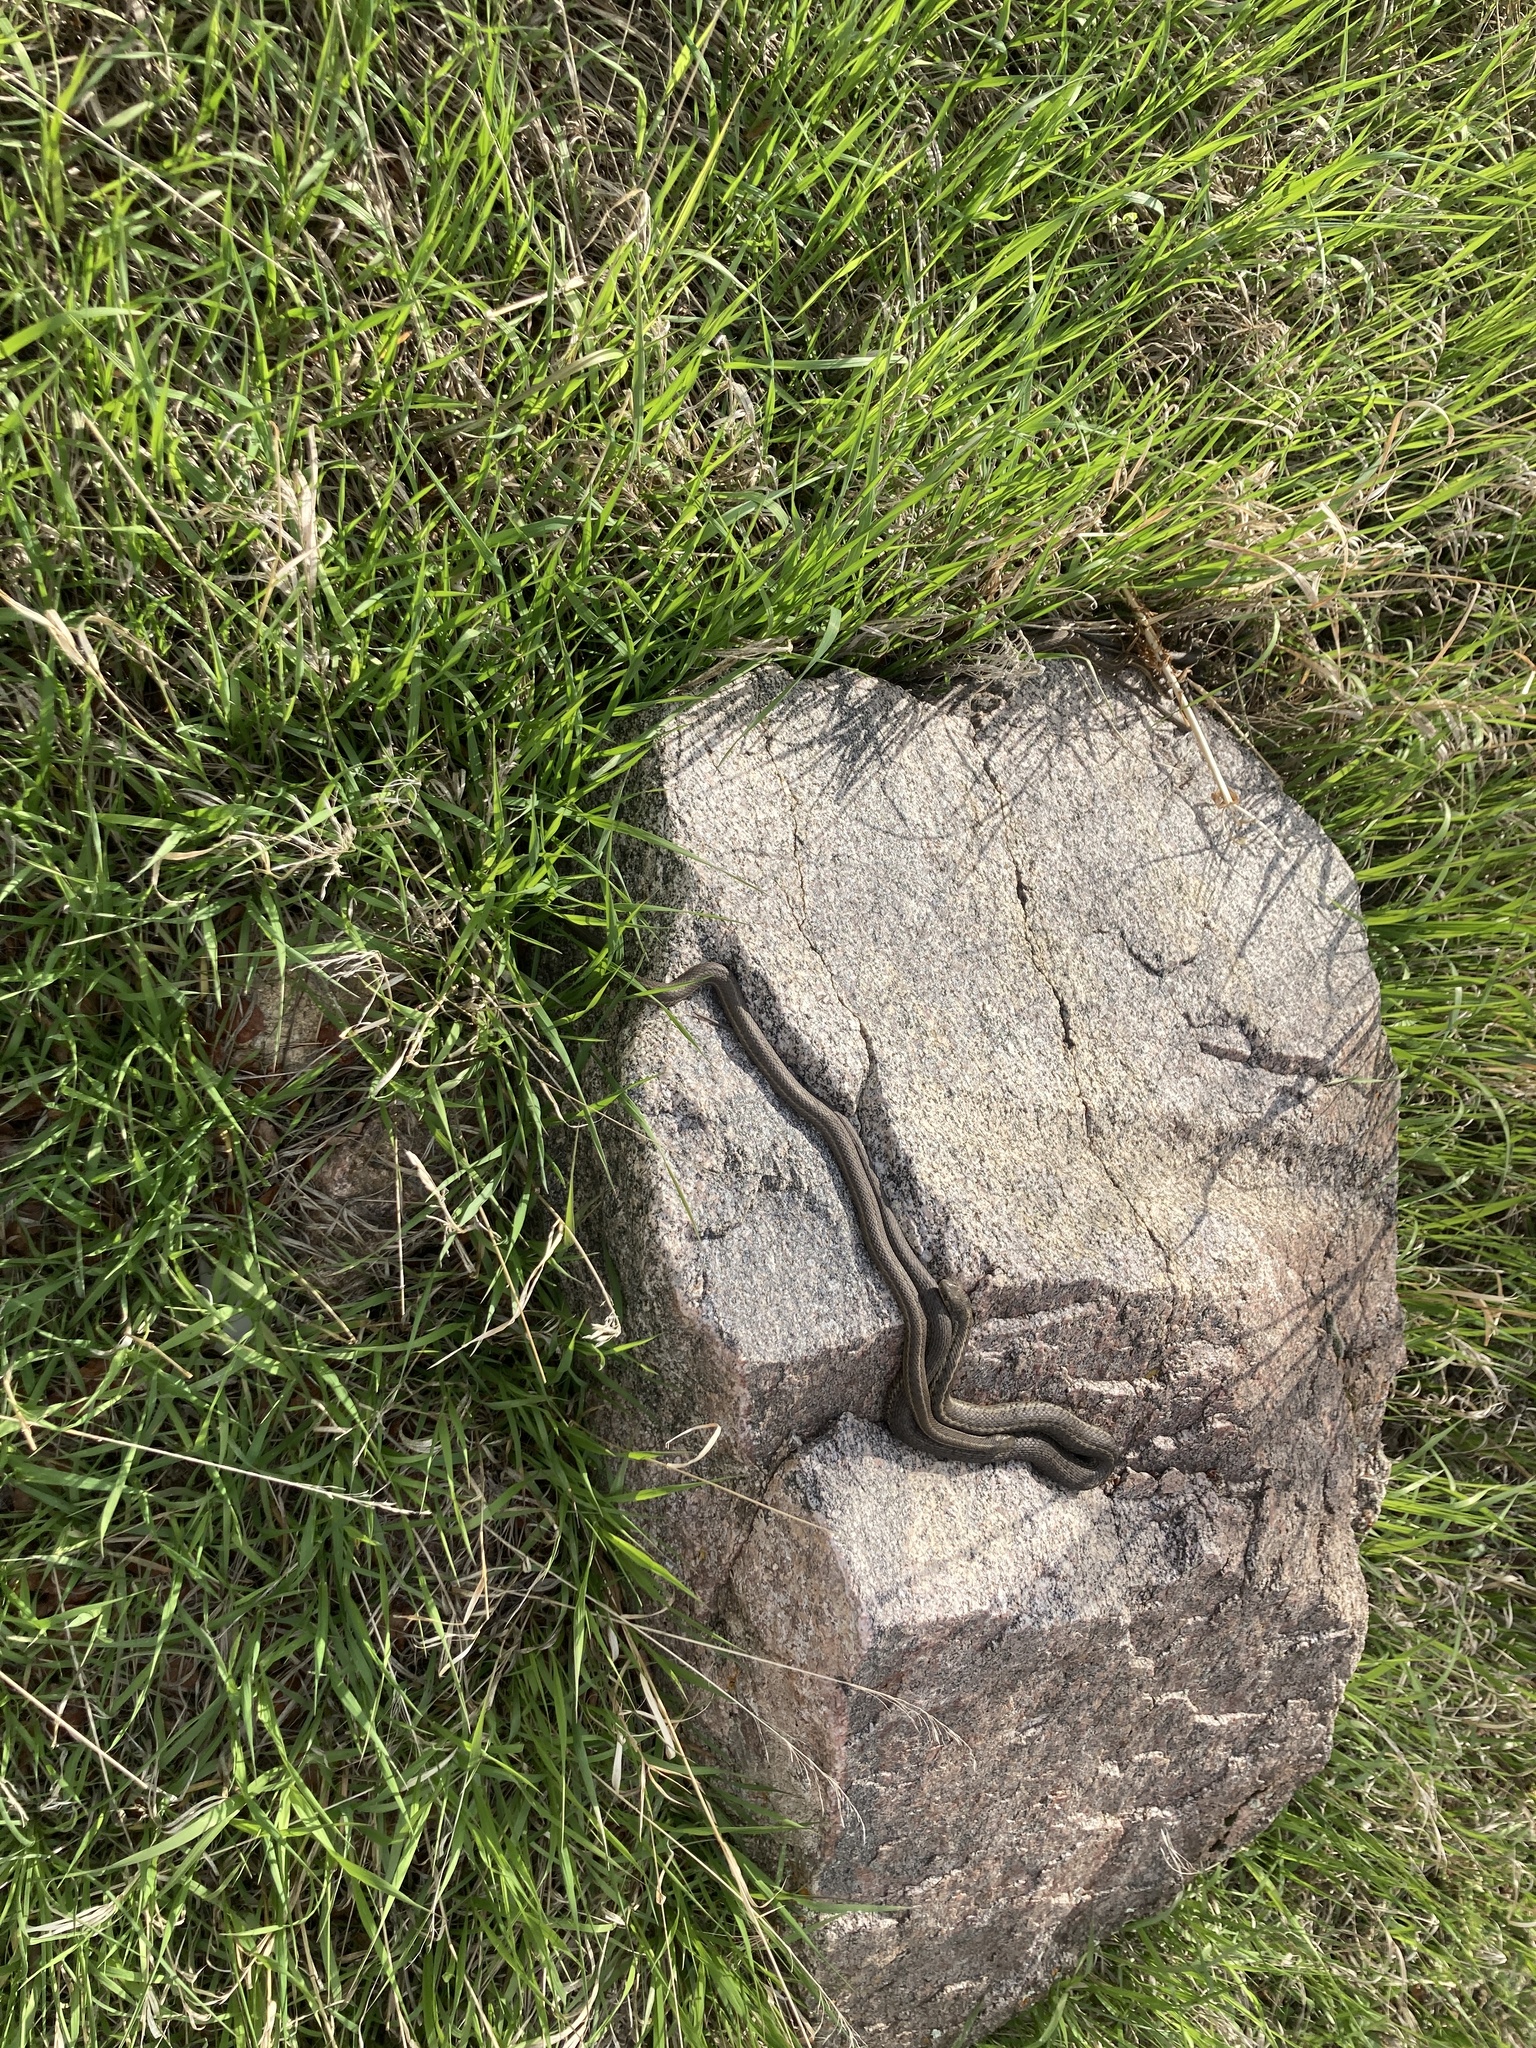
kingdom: Animalia
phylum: Chordata
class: Squamata
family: Colubridae
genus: Thamnophis
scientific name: Thamnophis elegans
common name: Western terrestrial garter snake
